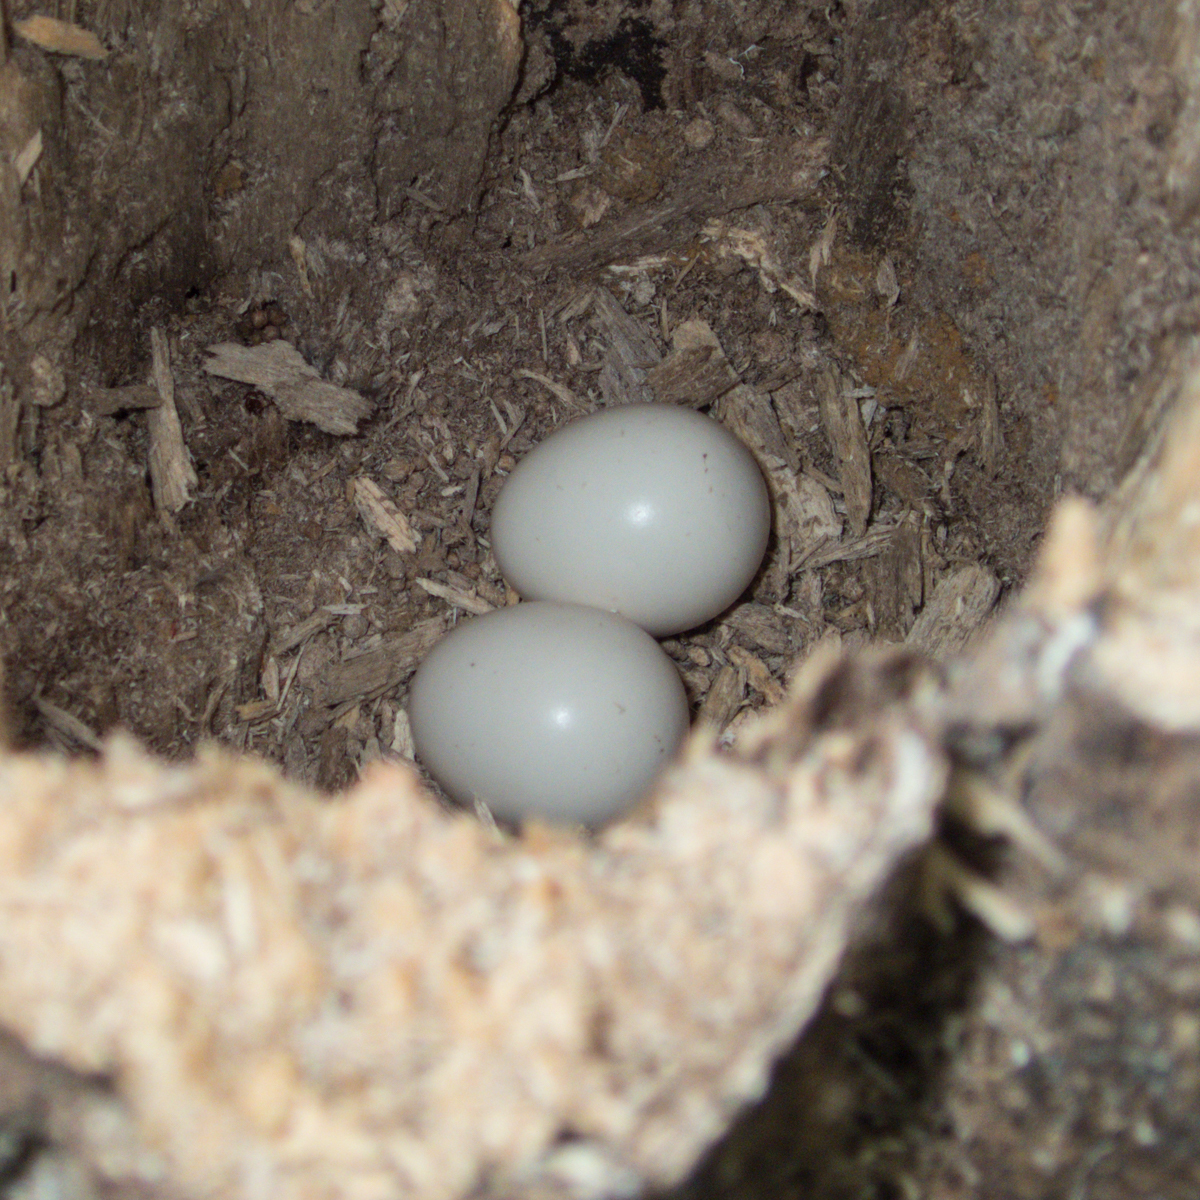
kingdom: Animalia
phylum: Chordata
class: Aves
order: Trogoniformes
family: Trogonidae
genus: Harpactes
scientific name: Harpactes erythrocephalus
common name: Red-headed trogon
